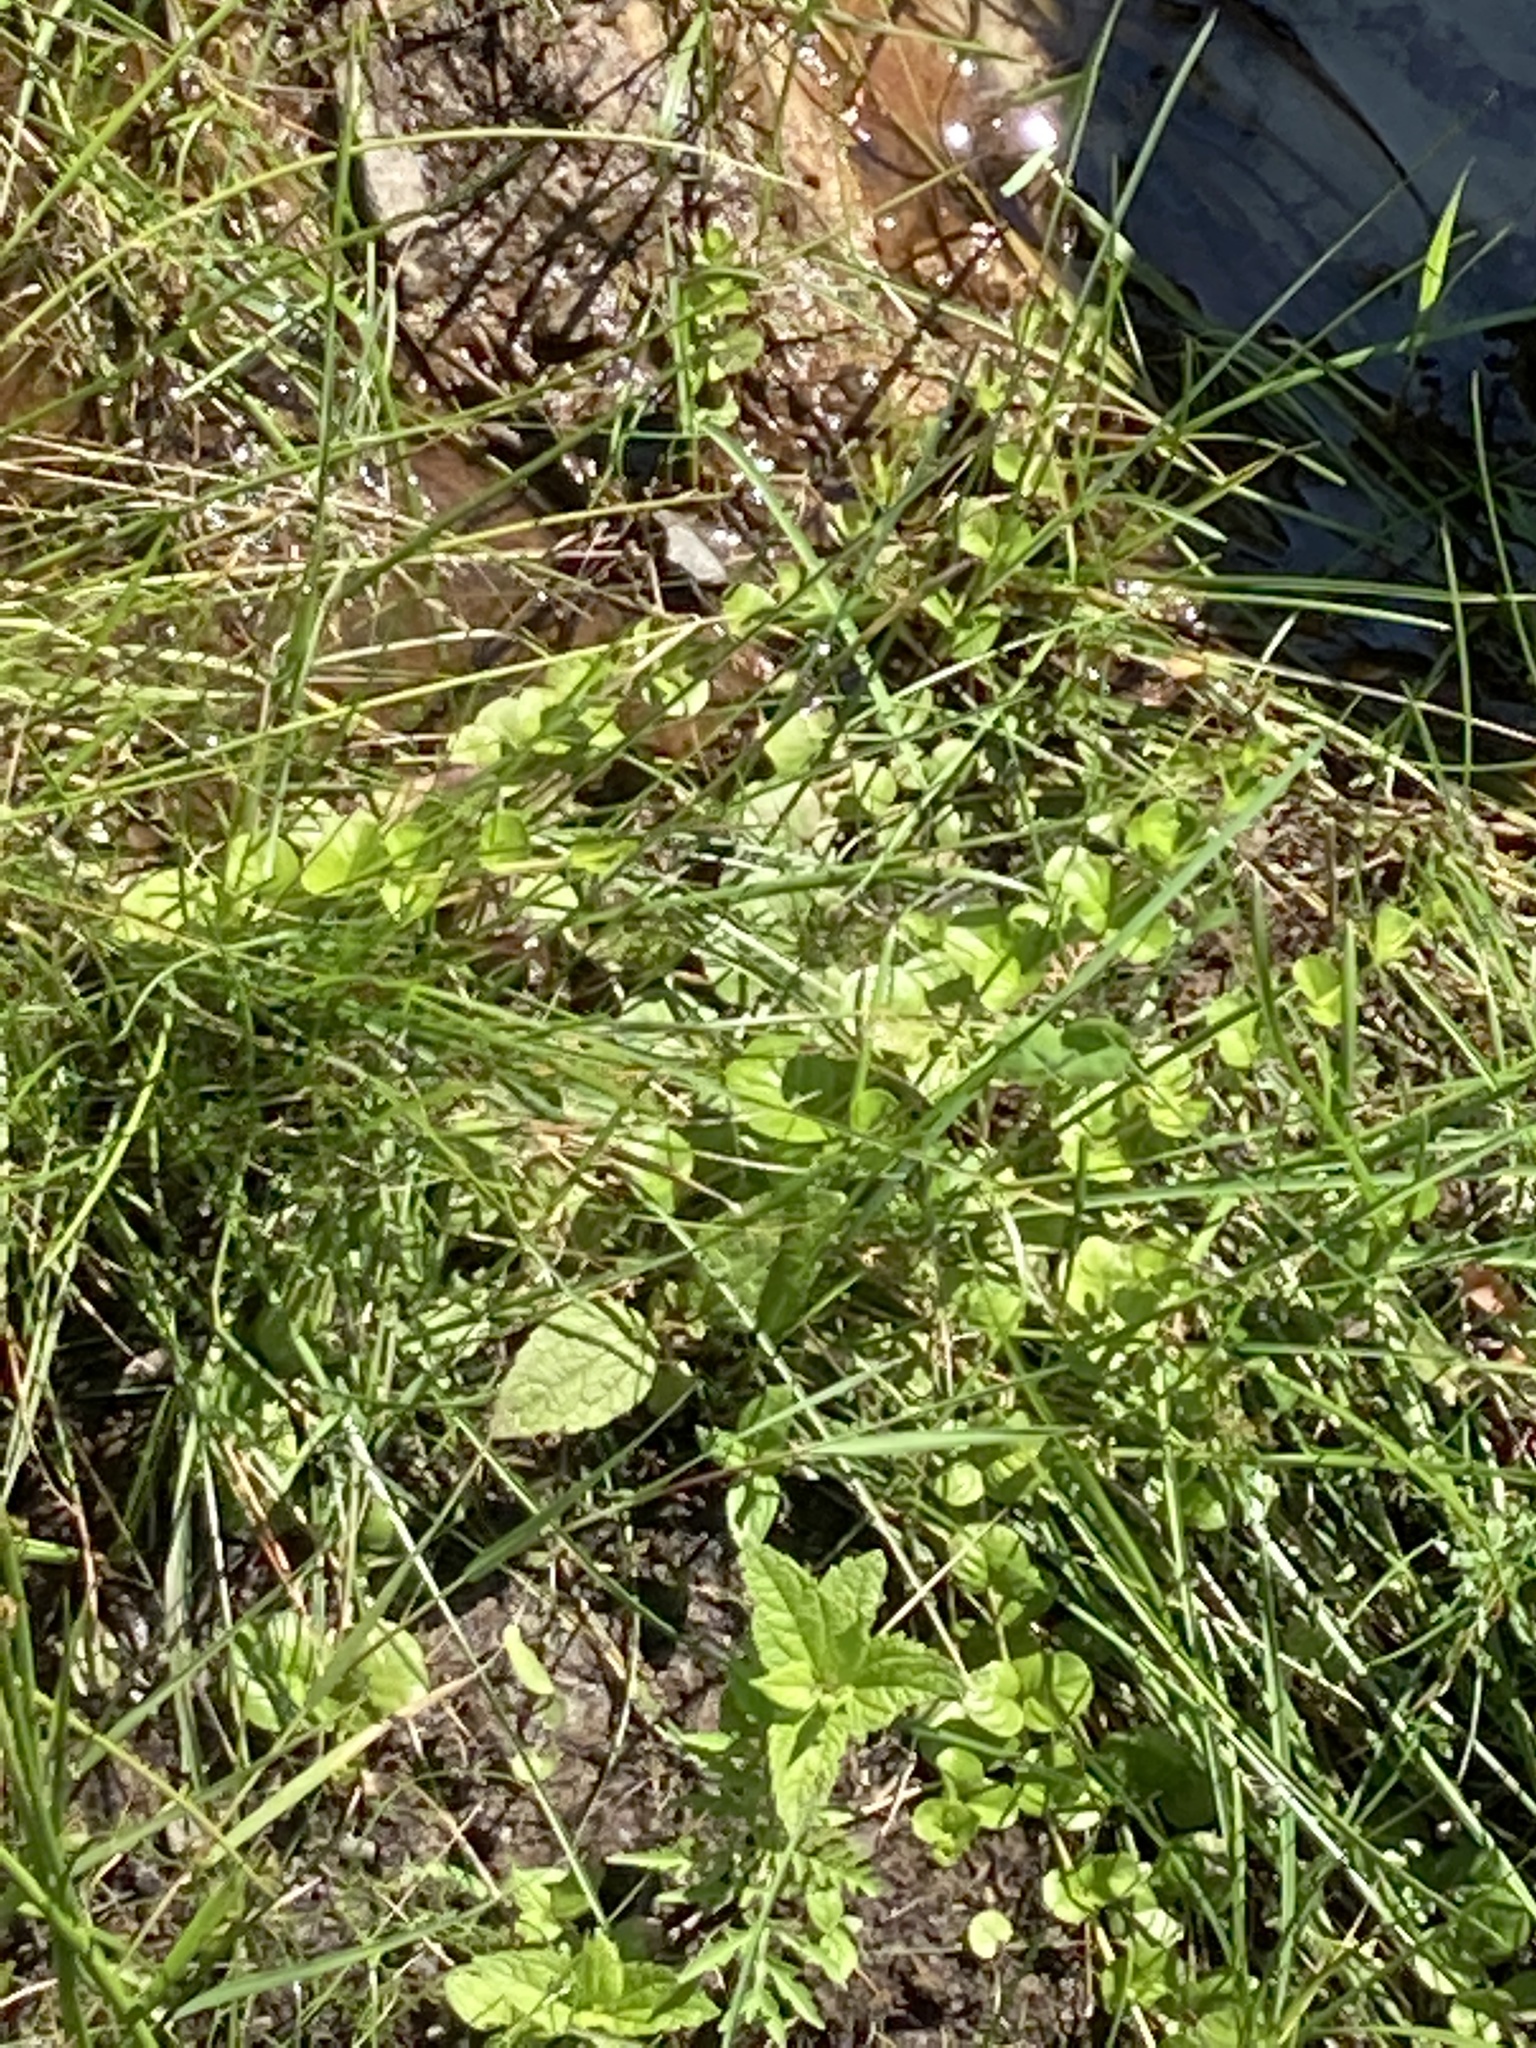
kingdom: Plantae
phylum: Tracheophyta
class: Magnoliopsida
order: Ericales
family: Primulaceae
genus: Lysimachia
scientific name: Lysimachia nummularia
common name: Moneywort
